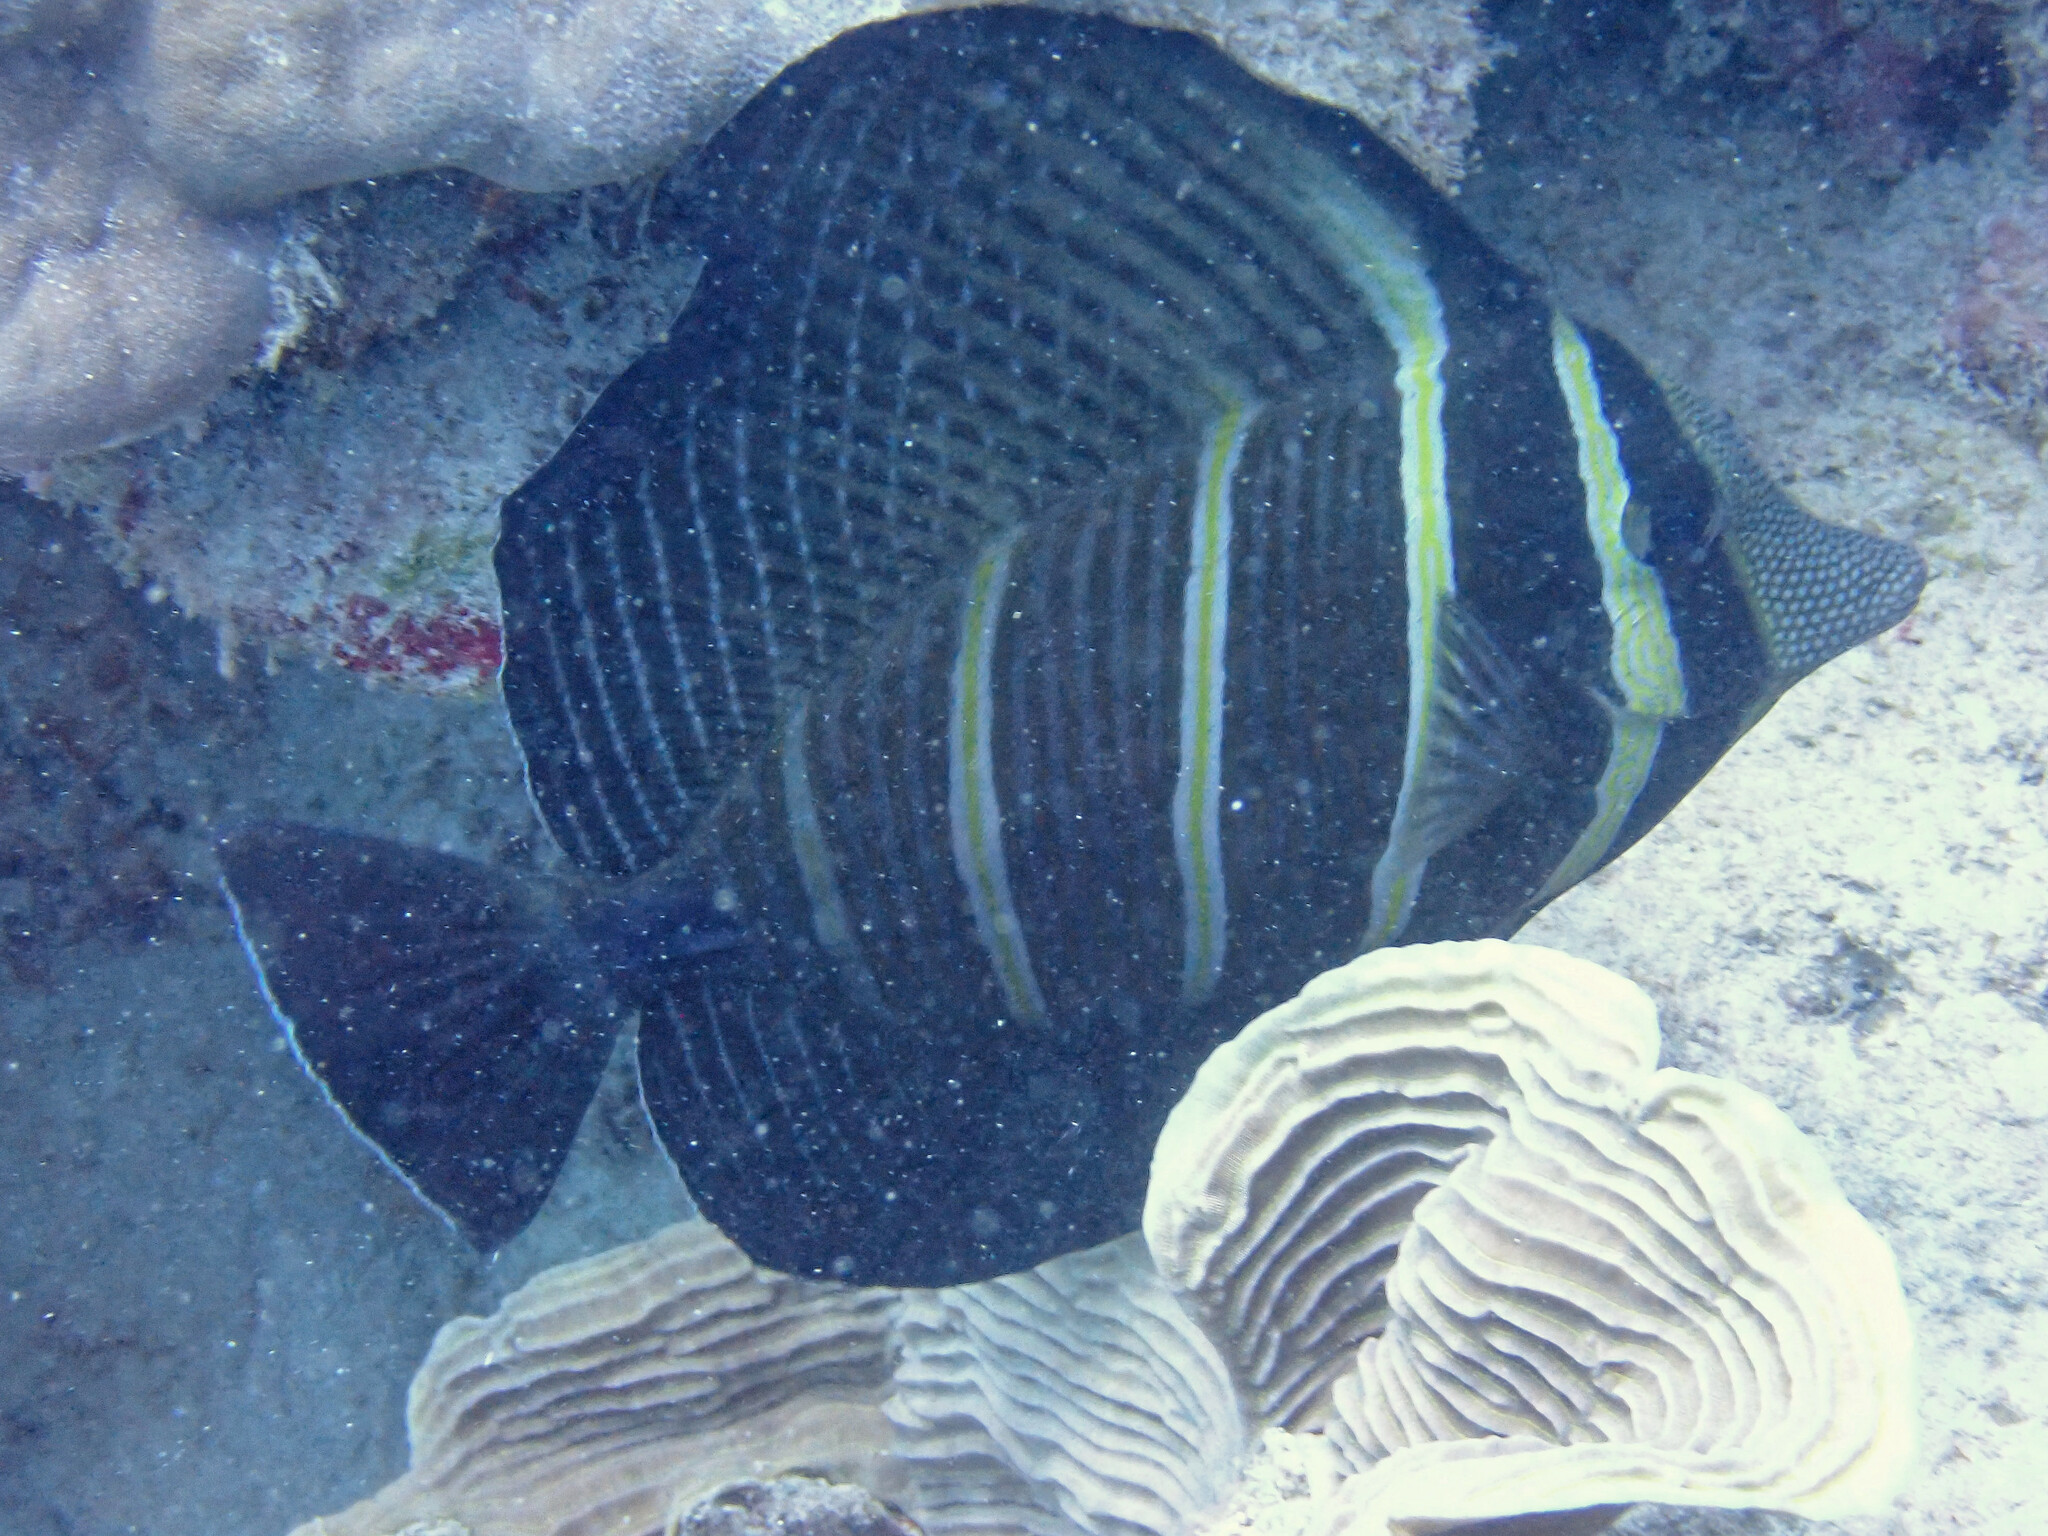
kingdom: Animalia
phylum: Chordata
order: Perciformes
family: Acanthuridae
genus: Zebrasoma
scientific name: Zebrasoma veliferum
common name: Sailfin surgeonfish
